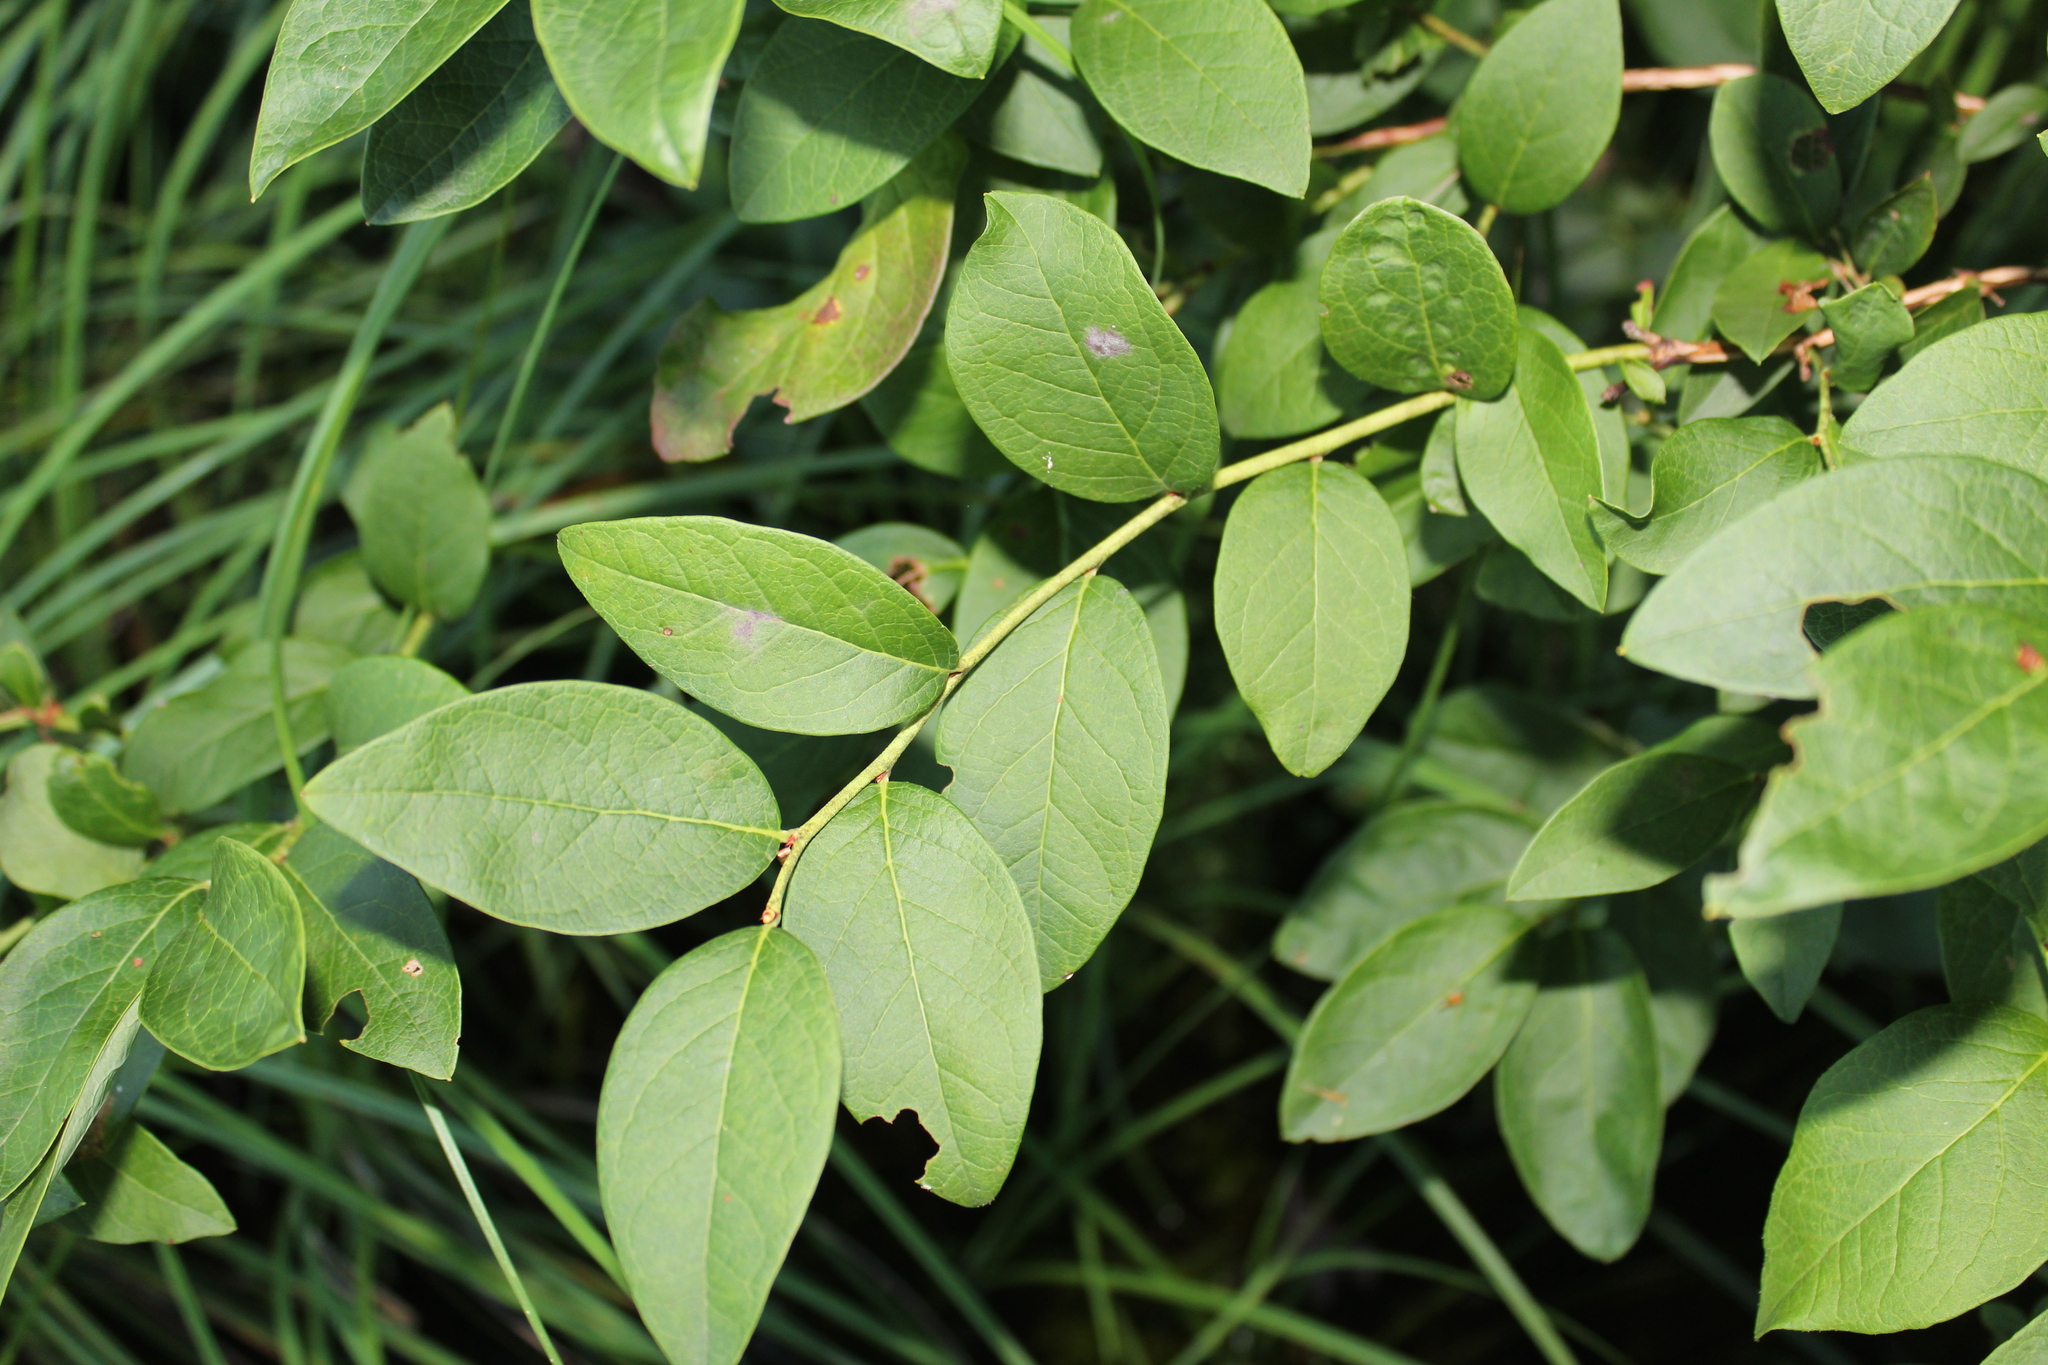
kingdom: Plantae
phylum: Tracheophyta
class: Magnoliopsida
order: Ericales
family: Ericaceae
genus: Vaccinium
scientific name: Vaccinium pallidum
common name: Blue ridge blueberry
